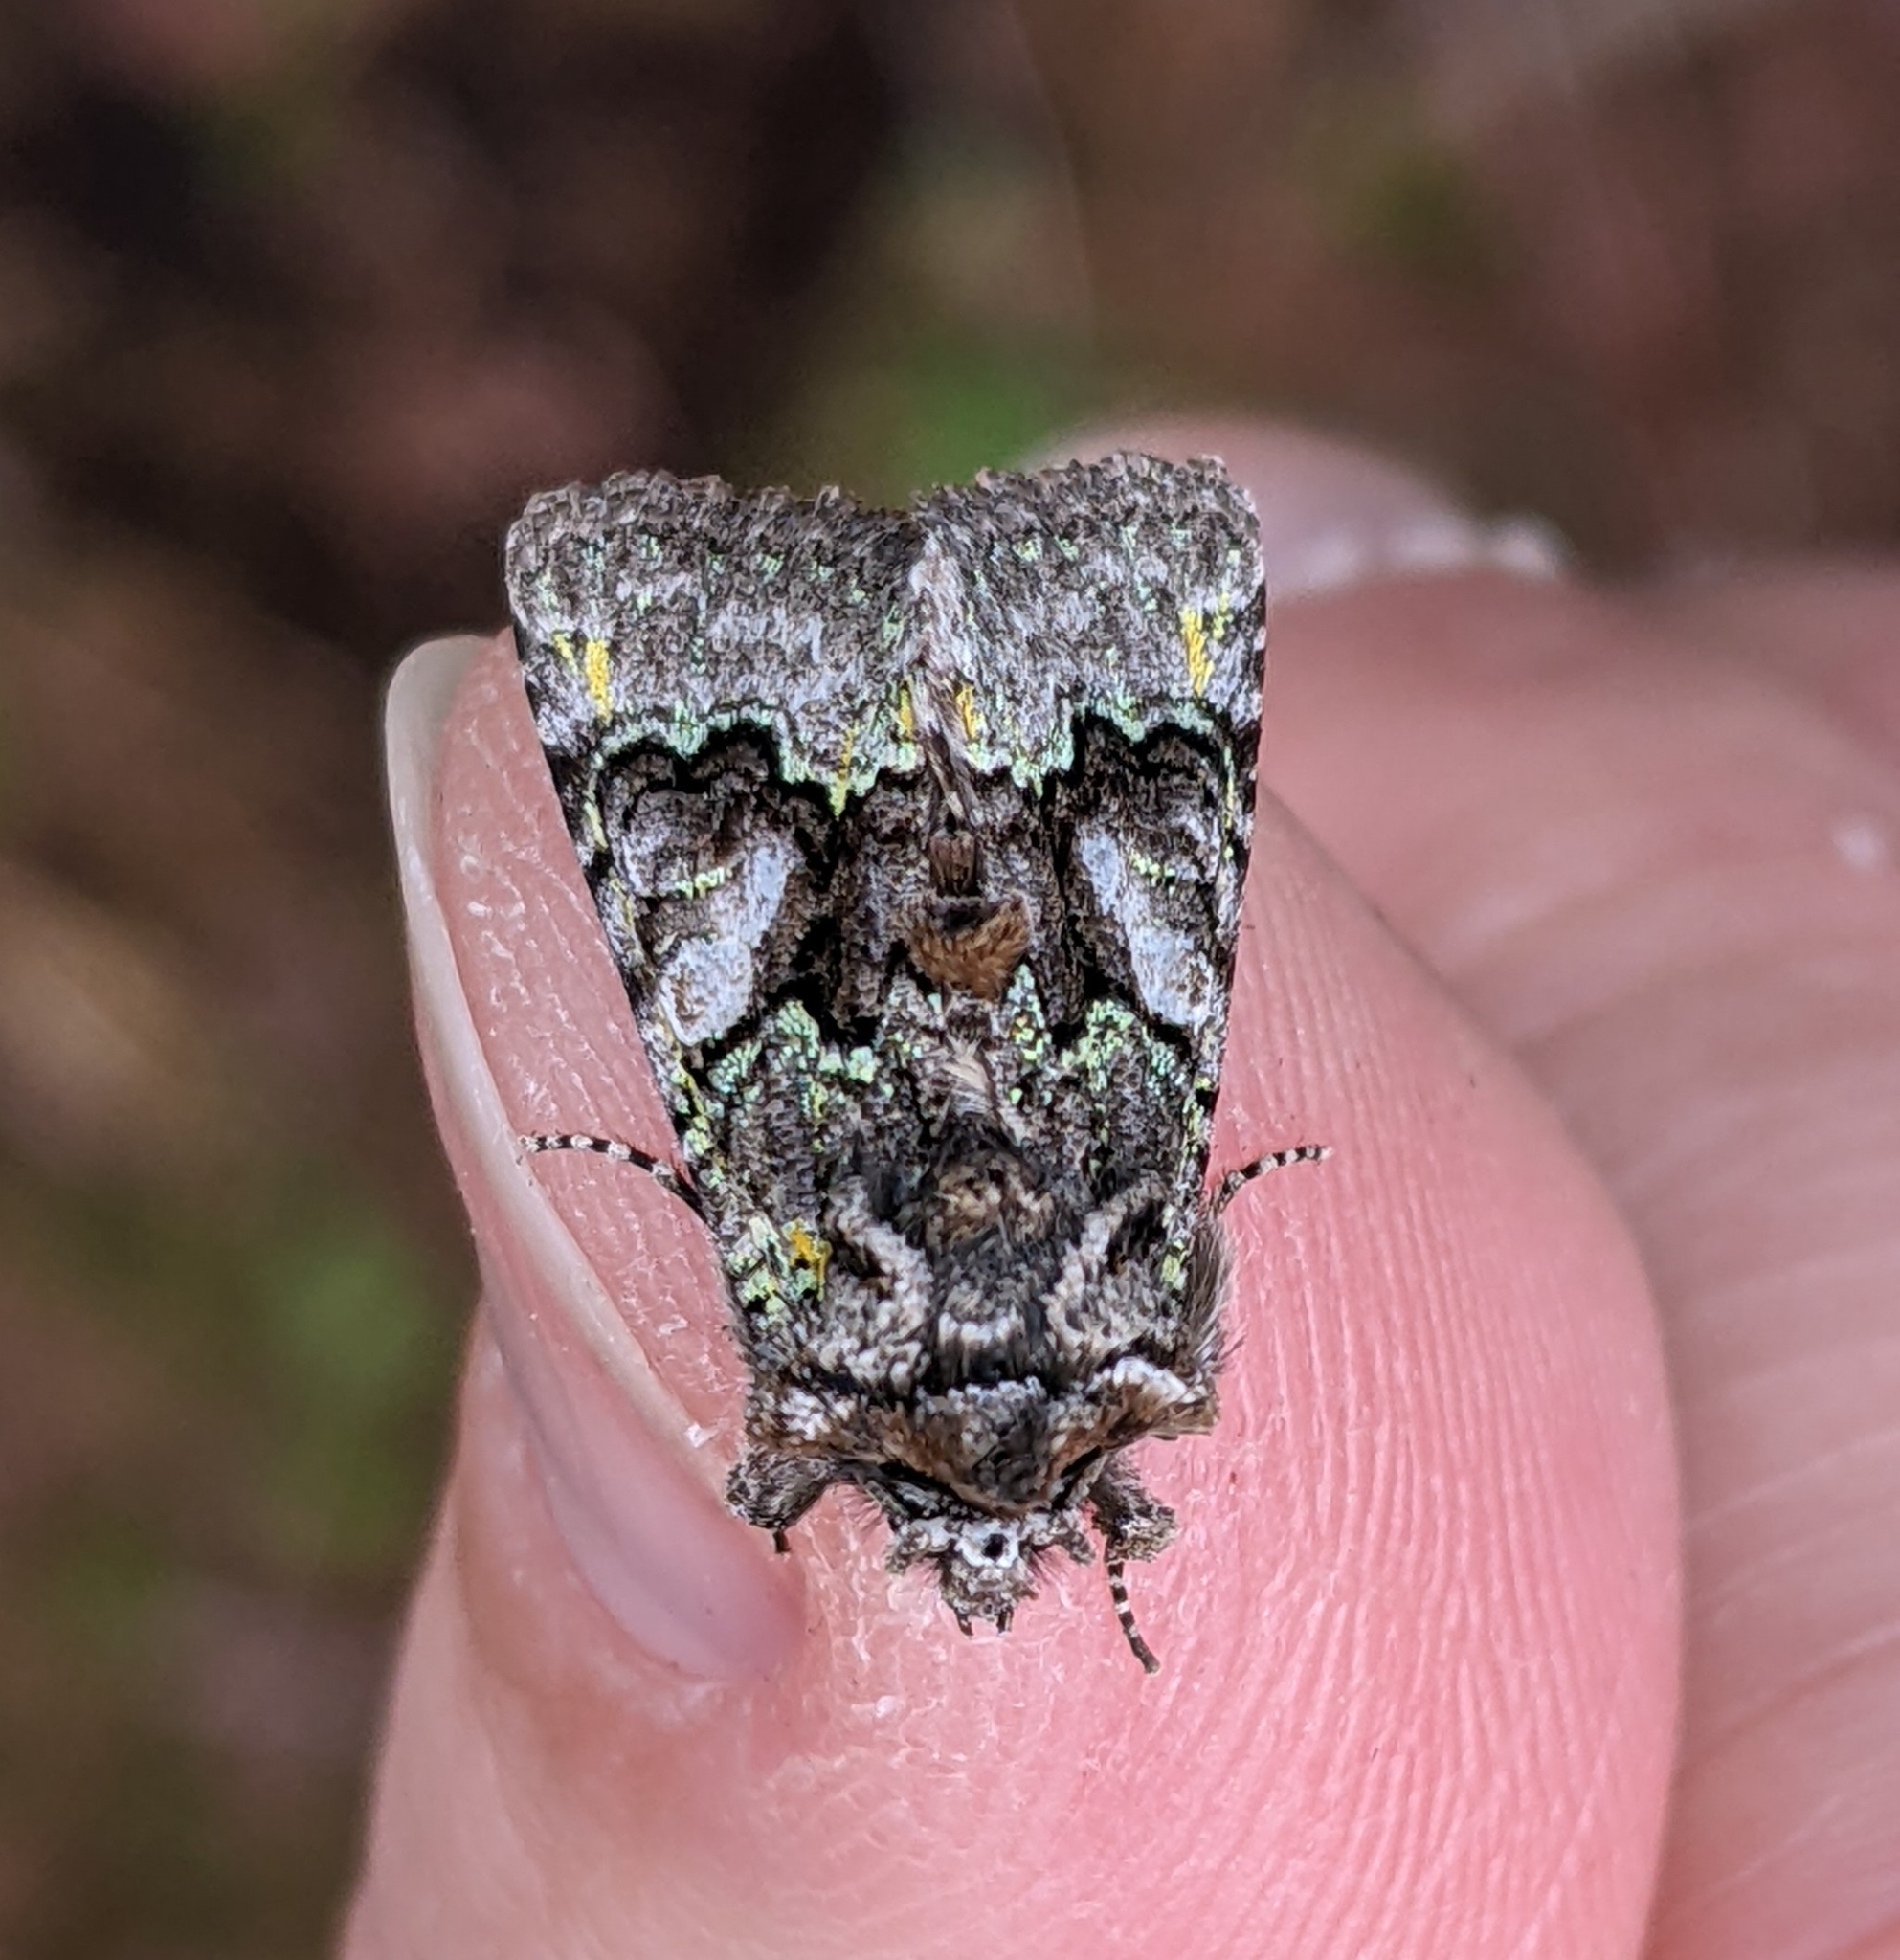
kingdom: Animalia
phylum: Arthropoda
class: Insecta
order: Lepidoptera
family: Noctuidae
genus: Behrensia
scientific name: Behrensia conchiformis
